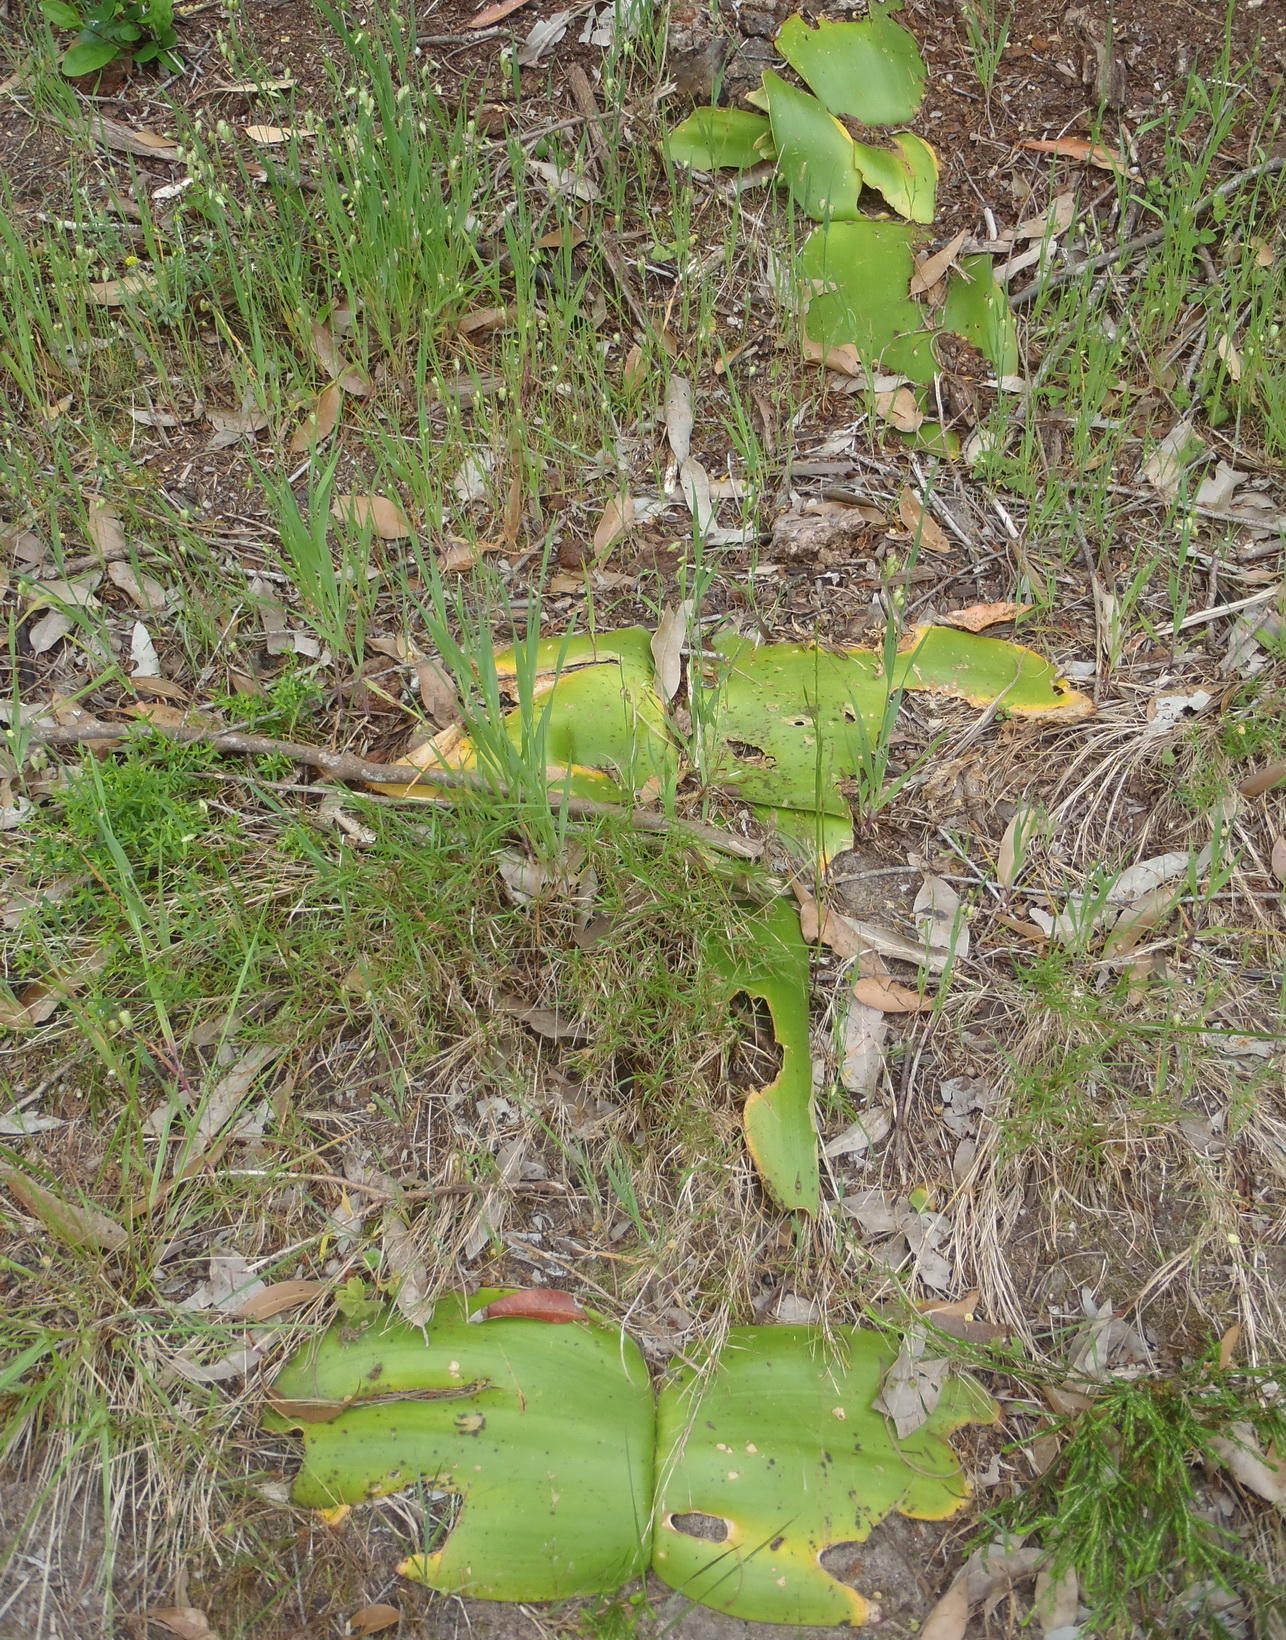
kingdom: Plantae
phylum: Tracheophyta
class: Liliopsida
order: Asparagales
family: Amaryllidaceae
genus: Haemanthus
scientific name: Haemanthus sanguineus
